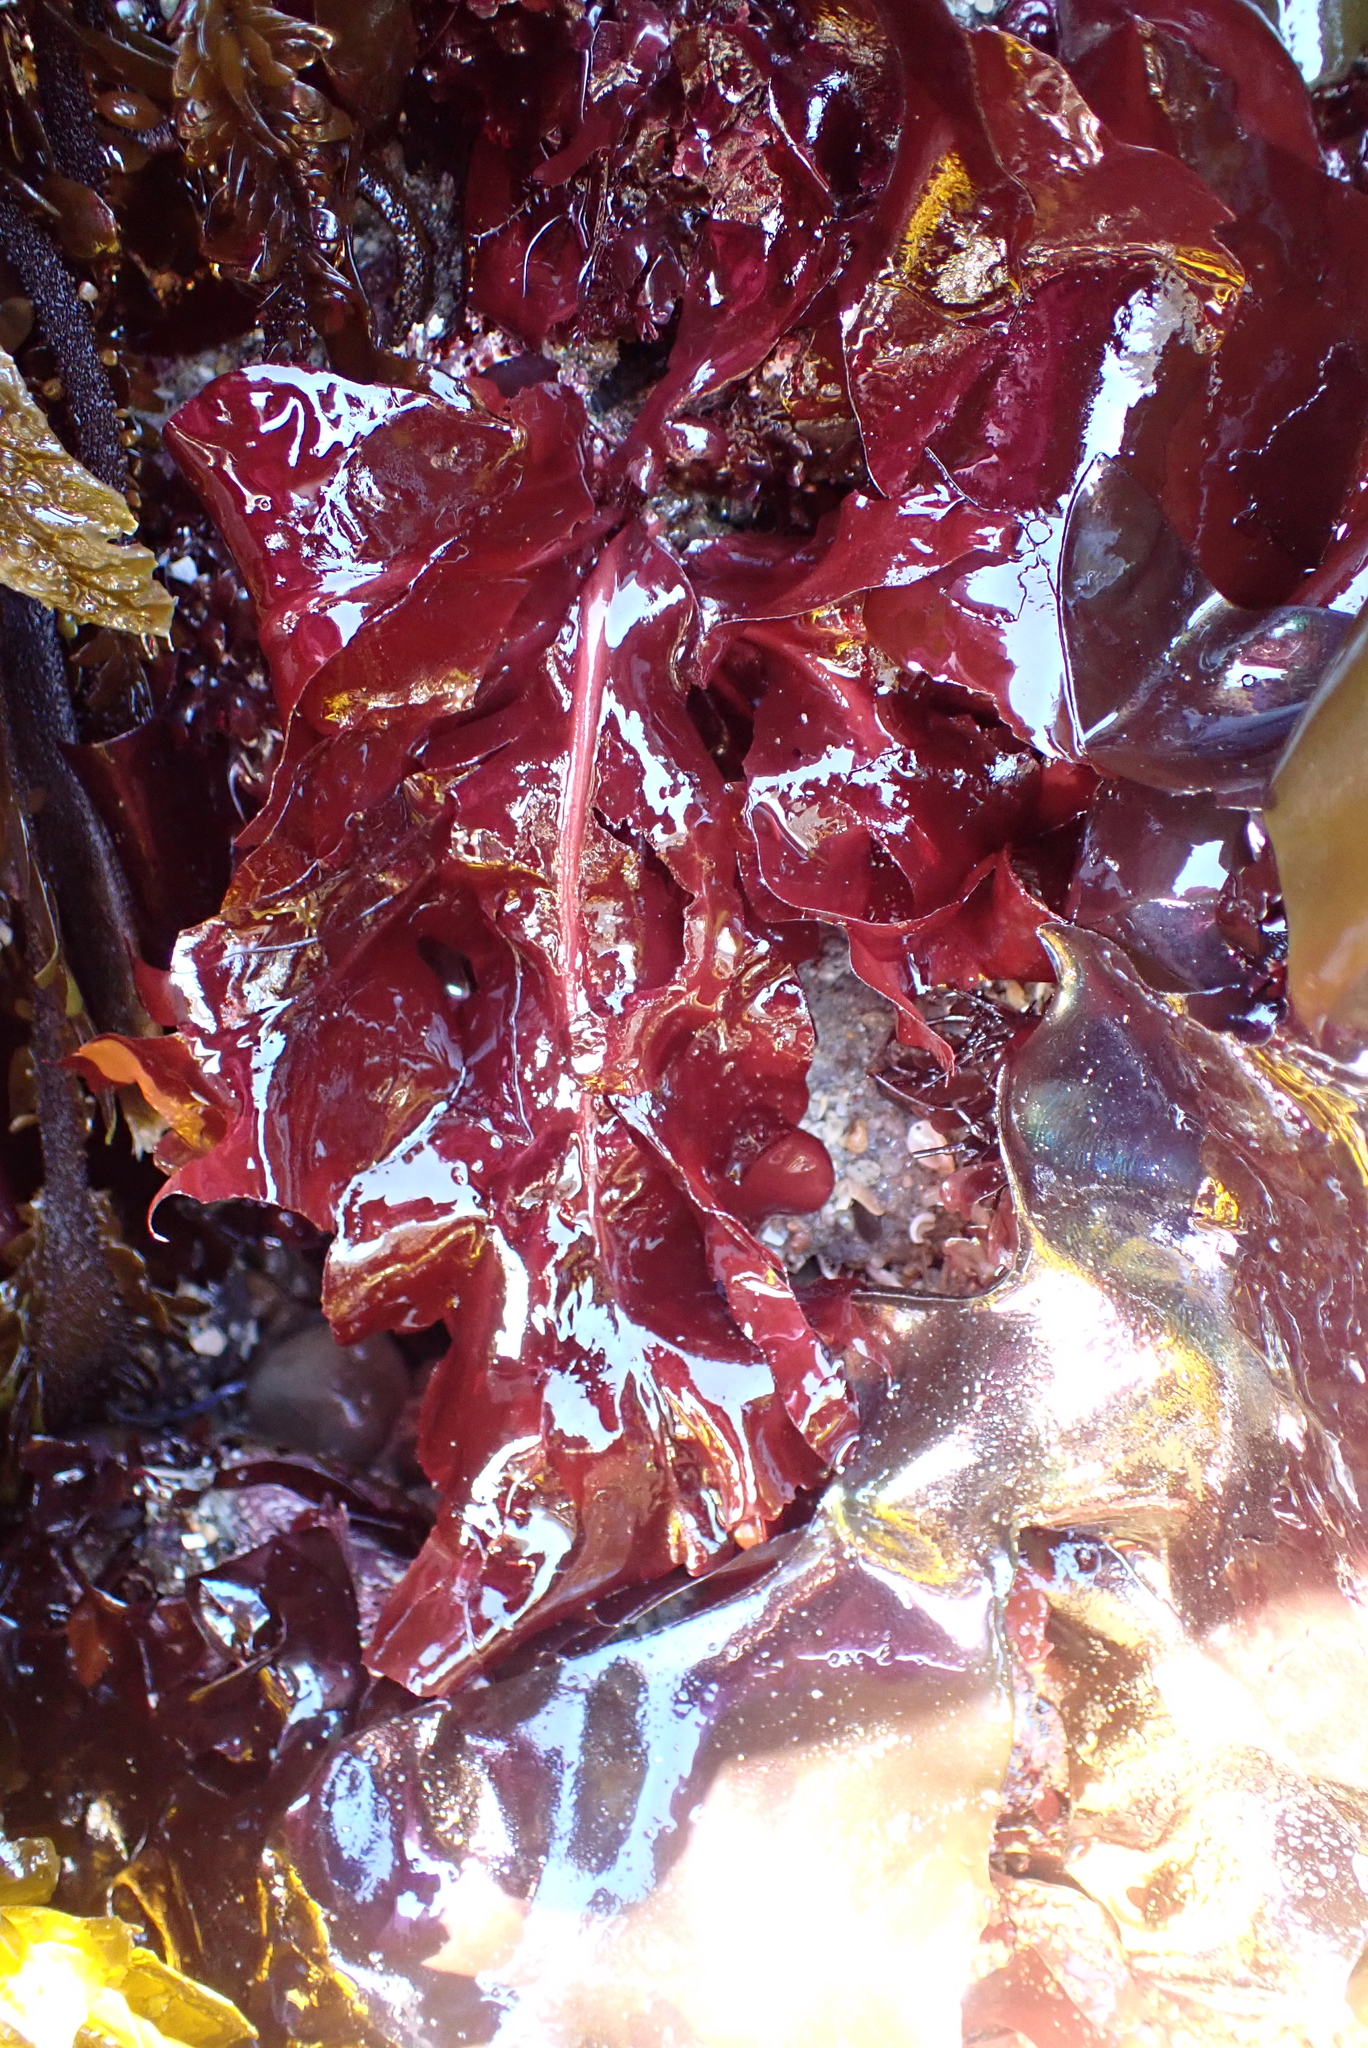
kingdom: Plantae
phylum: Rhodophyta
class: Florideophyceae
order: Gigartinales
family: Kallymeniaceae
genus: Erythrophyllum
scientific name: Erythrophyllum delesserioides
